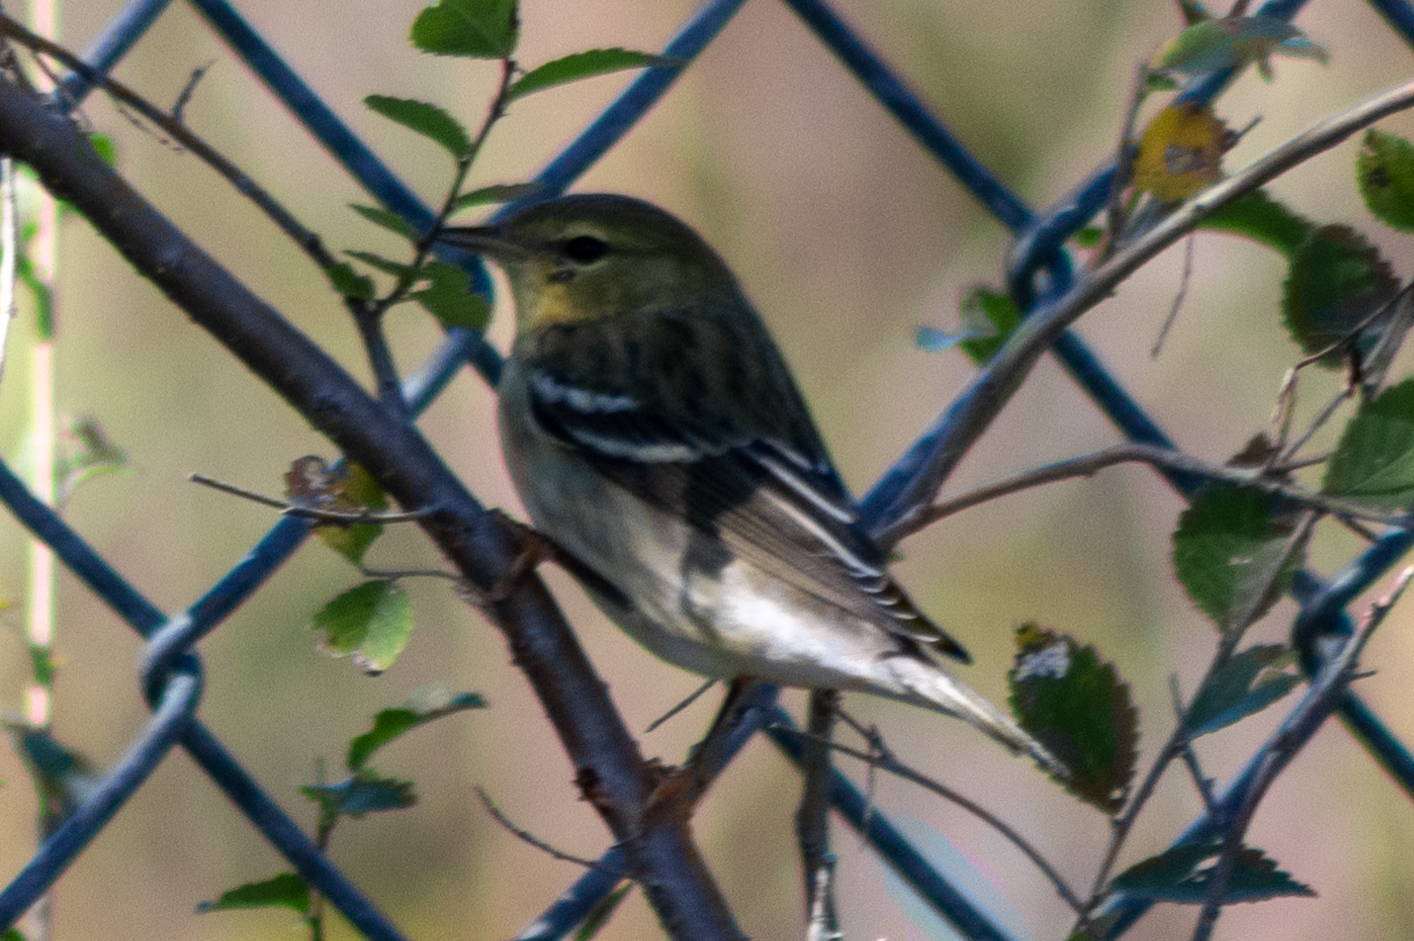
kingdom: Animalia
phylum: Chordata
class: Aves
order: Passeriformes
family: Parulidae
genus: Setophaga
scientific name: Setophaga striata
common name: Blackpoll warbler
